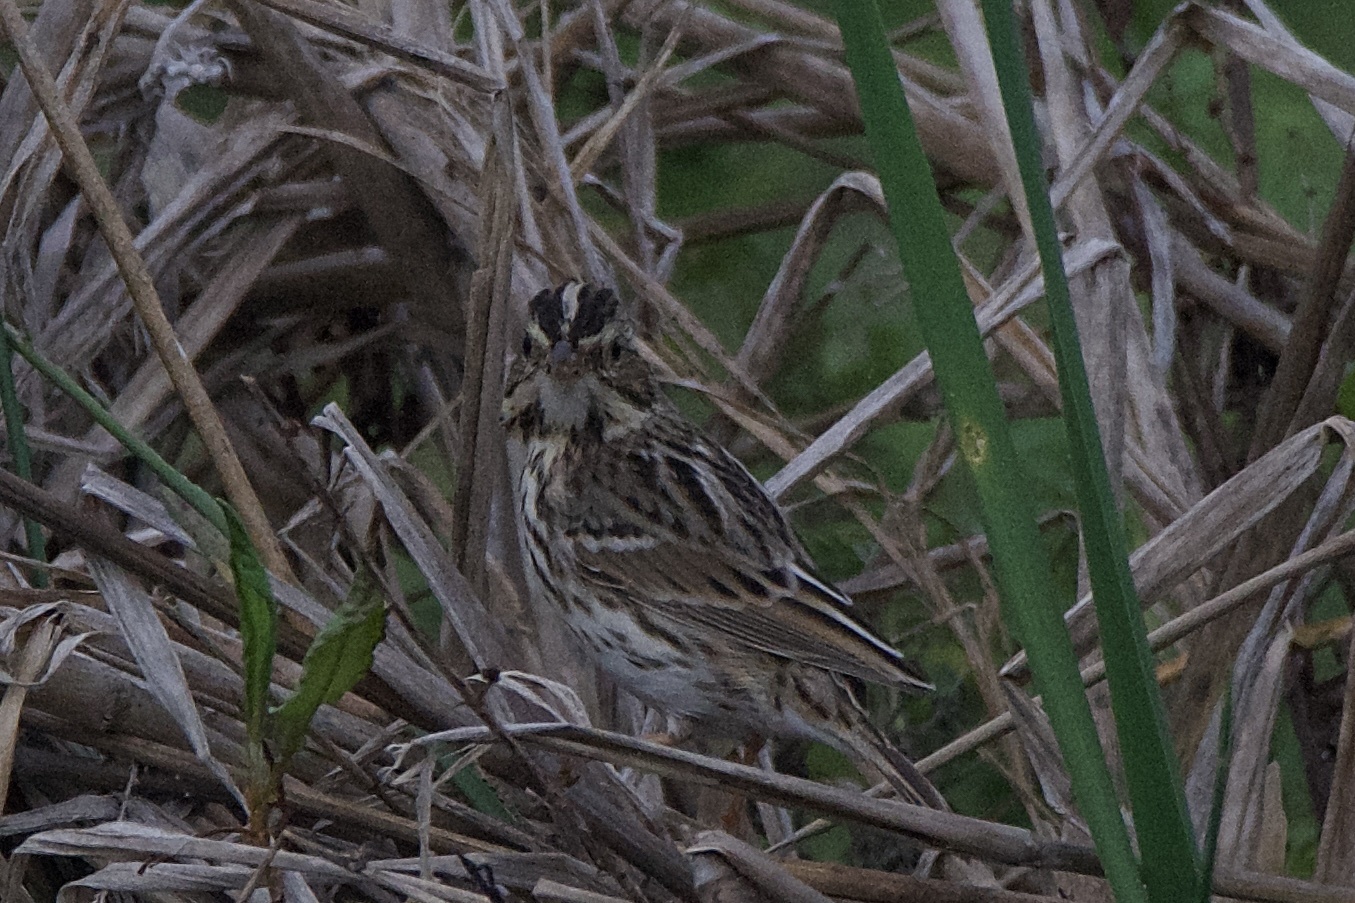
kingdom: Animalia
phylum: Chordata
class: Aves
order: Passeriformes
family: Passerellidae
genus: Passerculus
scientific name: Passerculus sandwichensis
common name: Savannah sparrow
